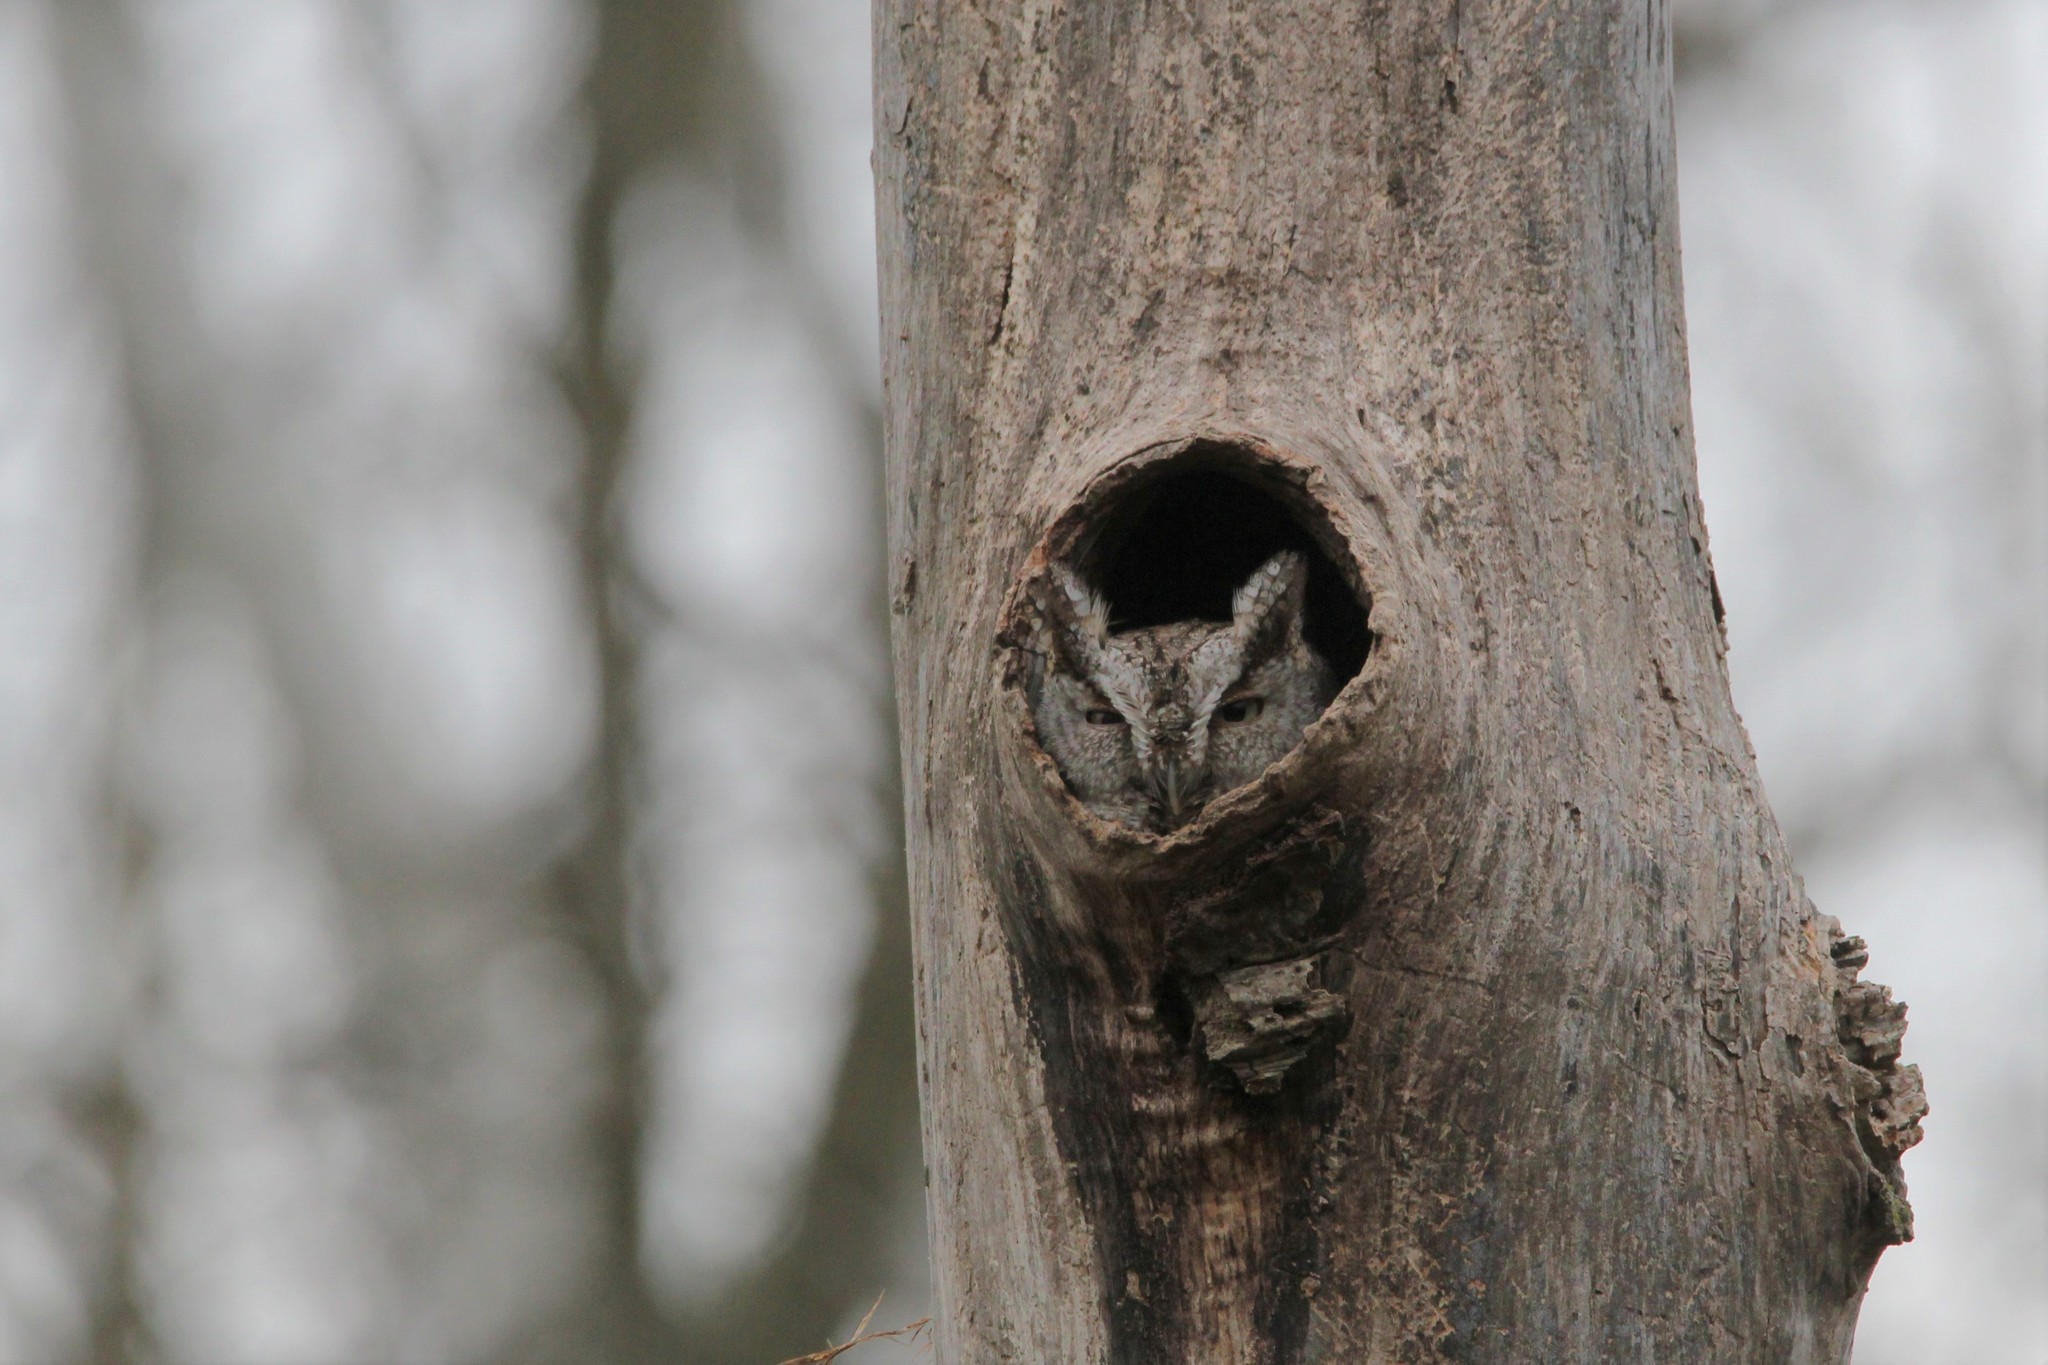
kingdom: Animalia
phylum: Chordata
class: Aves
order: Strigiformes
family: Strigidae
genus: Megascops
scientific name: Megascops asio
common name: Eastern screech-owl
